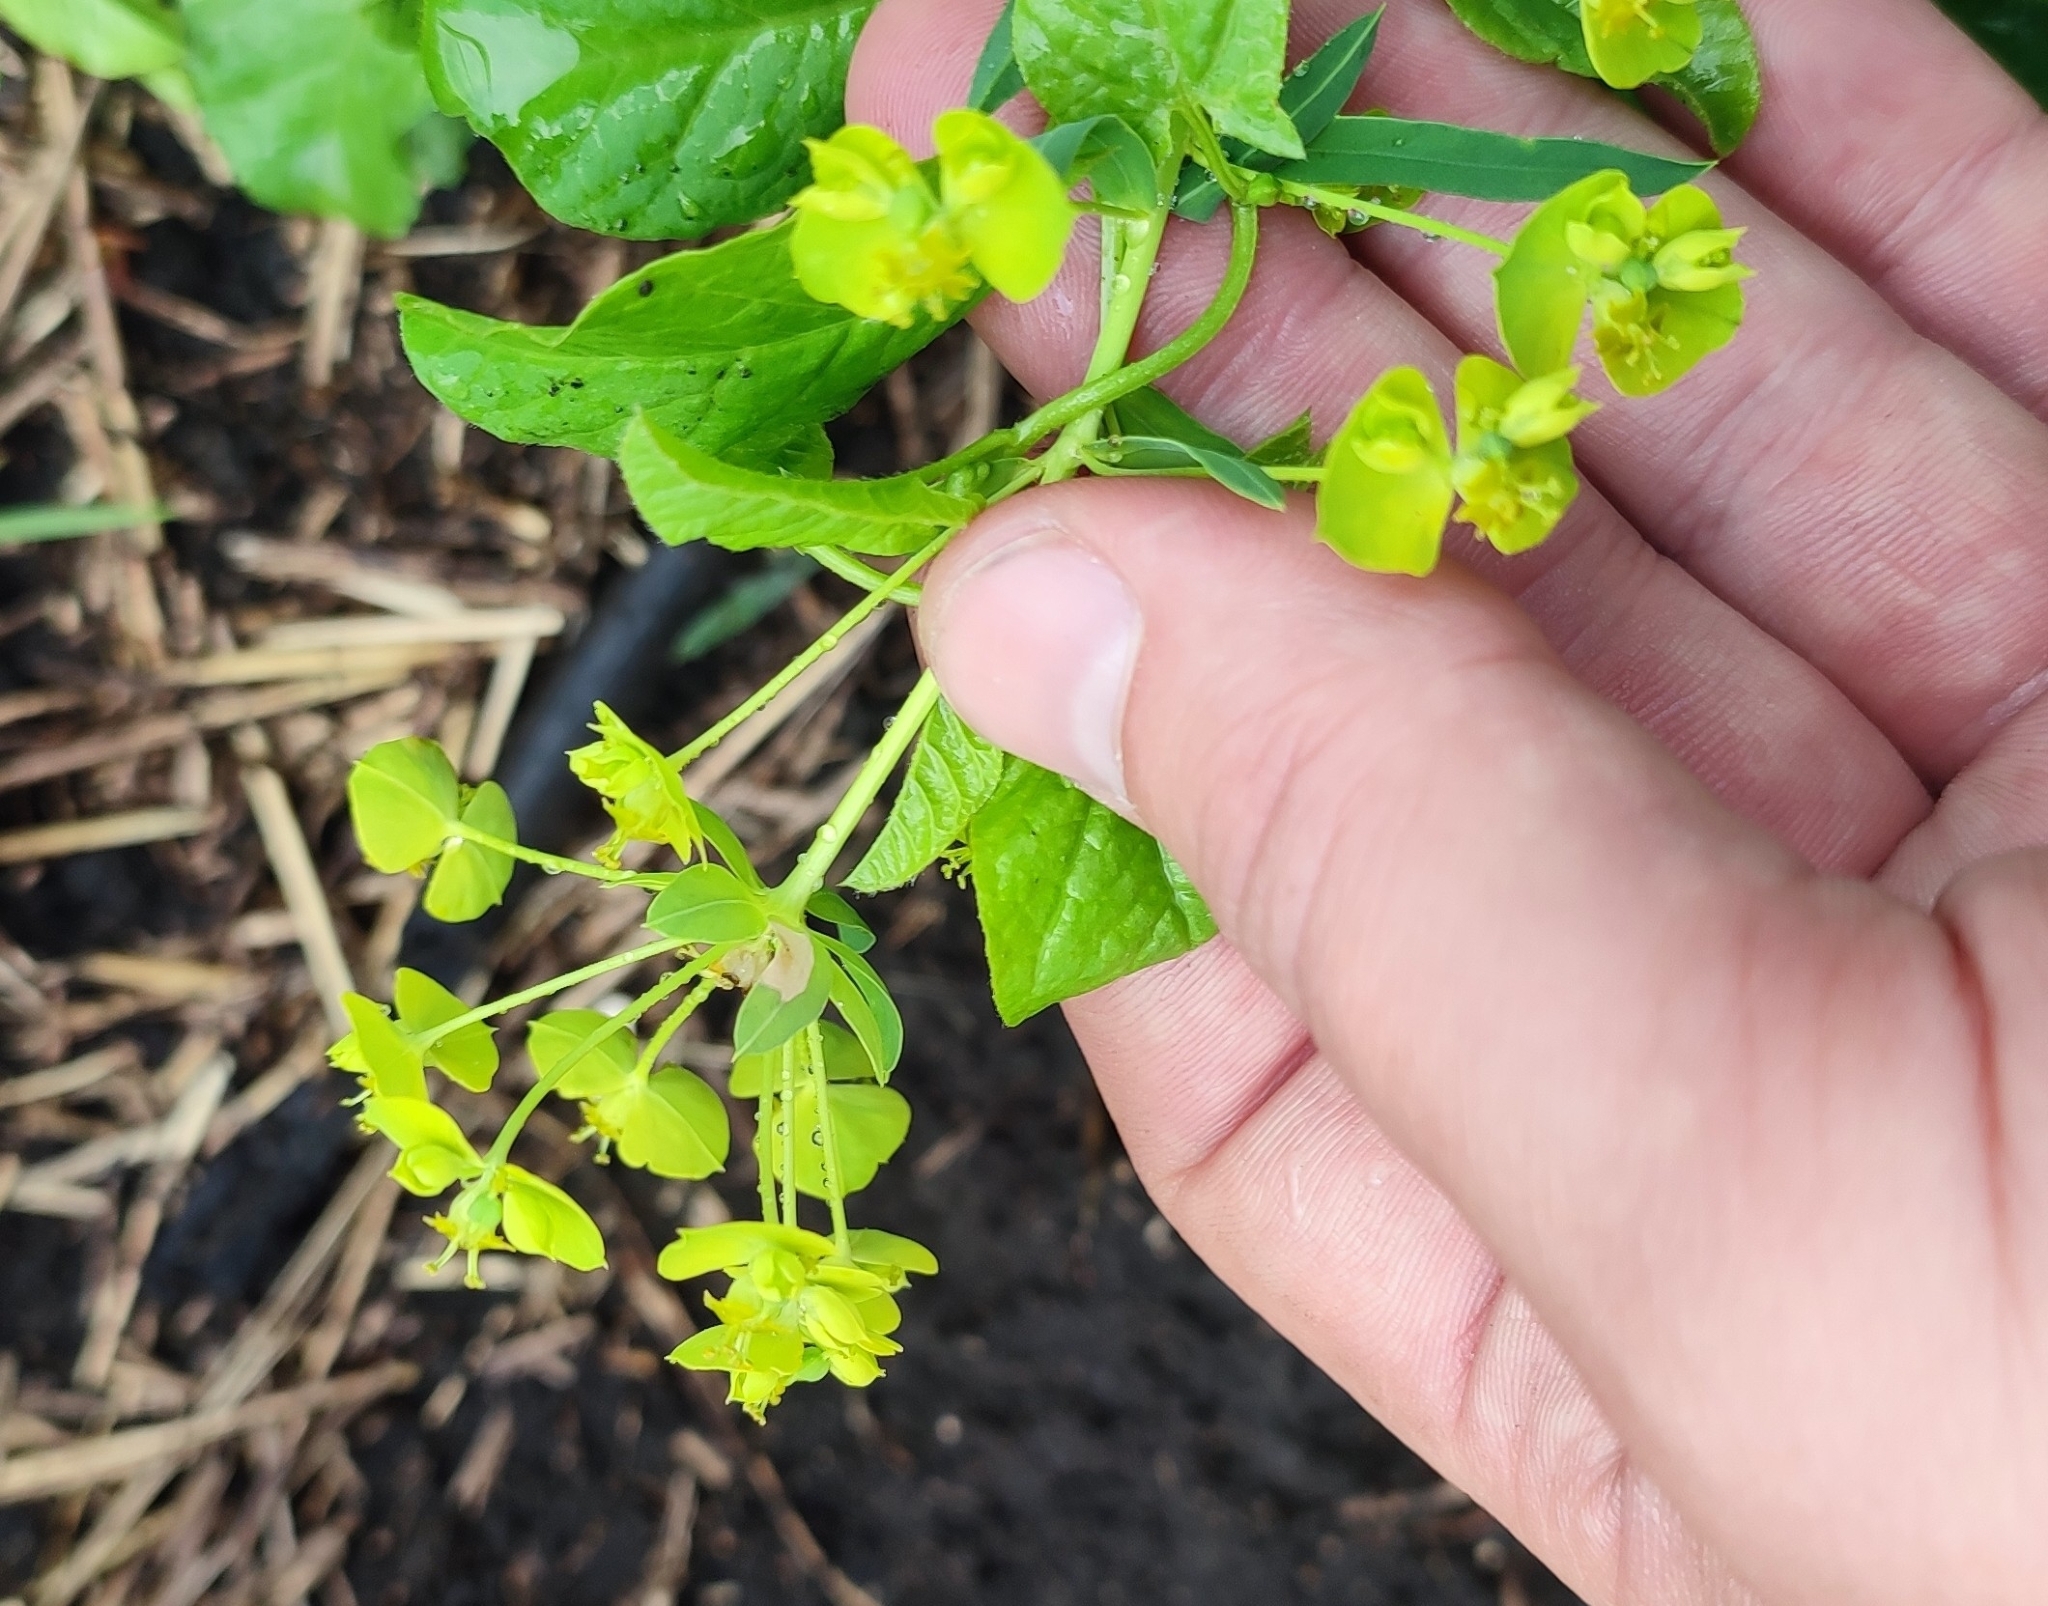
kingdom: Plantae
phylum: Tracheophyta
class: Magnoliopsida
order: Malpighiales
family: Euphorbiaceae
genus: Euphorbia
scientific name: Euphorbia virgata
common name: Leafy spurge
